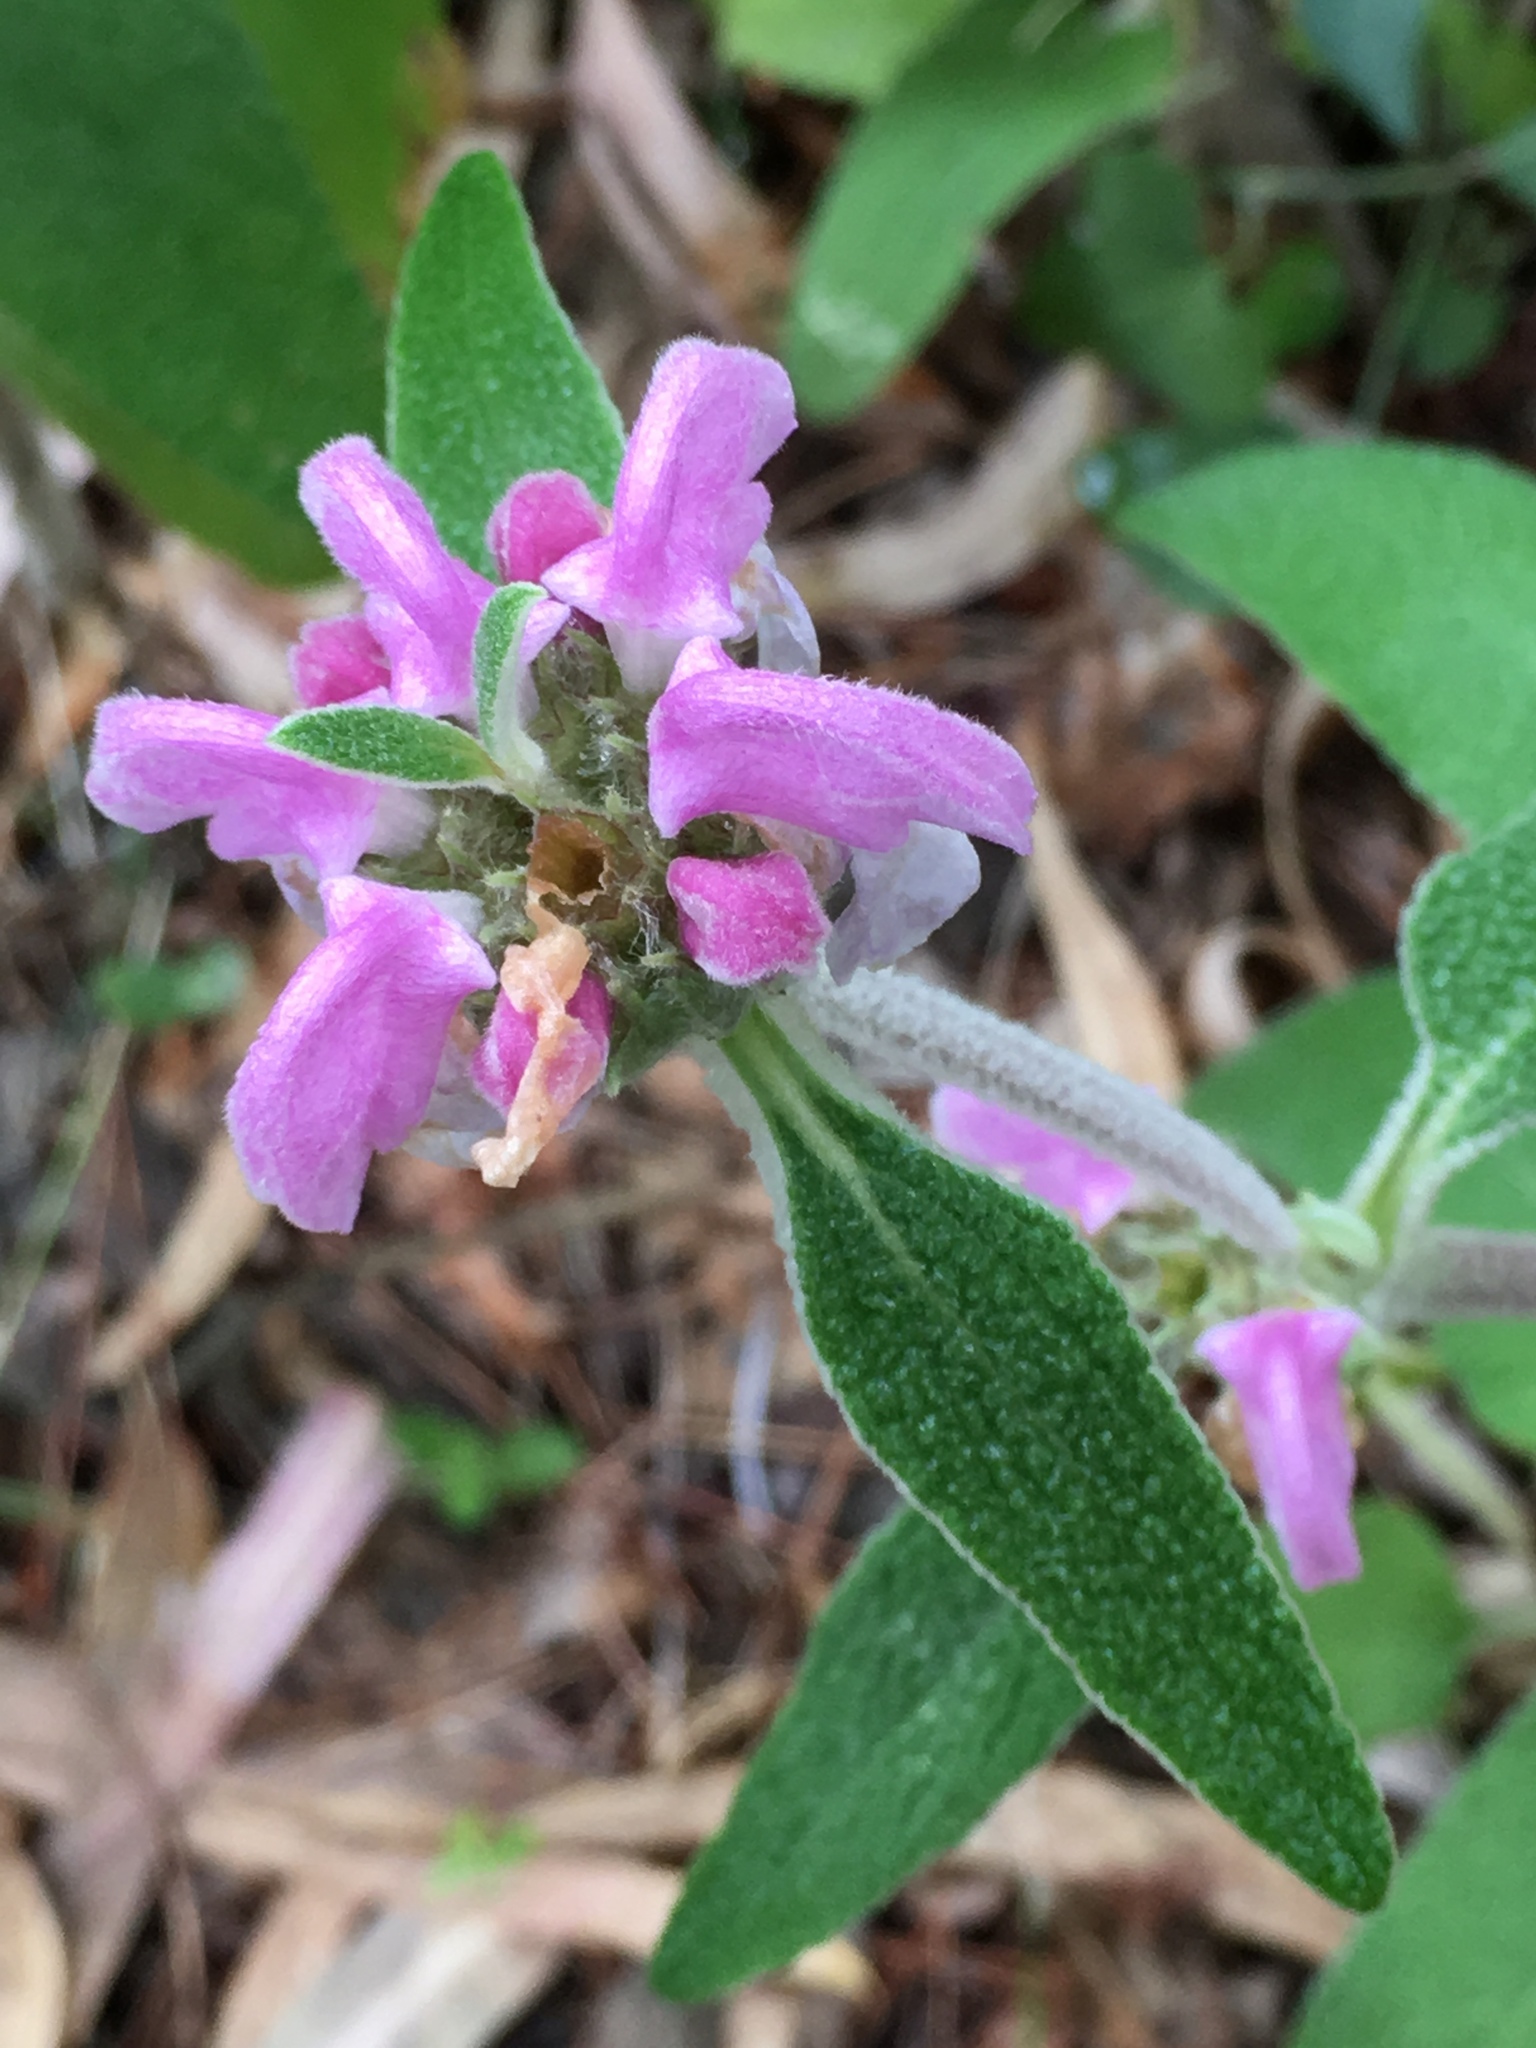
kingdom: Plantae
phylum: Tracheophyta
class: Magnoliopsida
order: Lamiales
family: Lamiaceae
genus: Phlomis
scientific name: Phlomis purpurea
